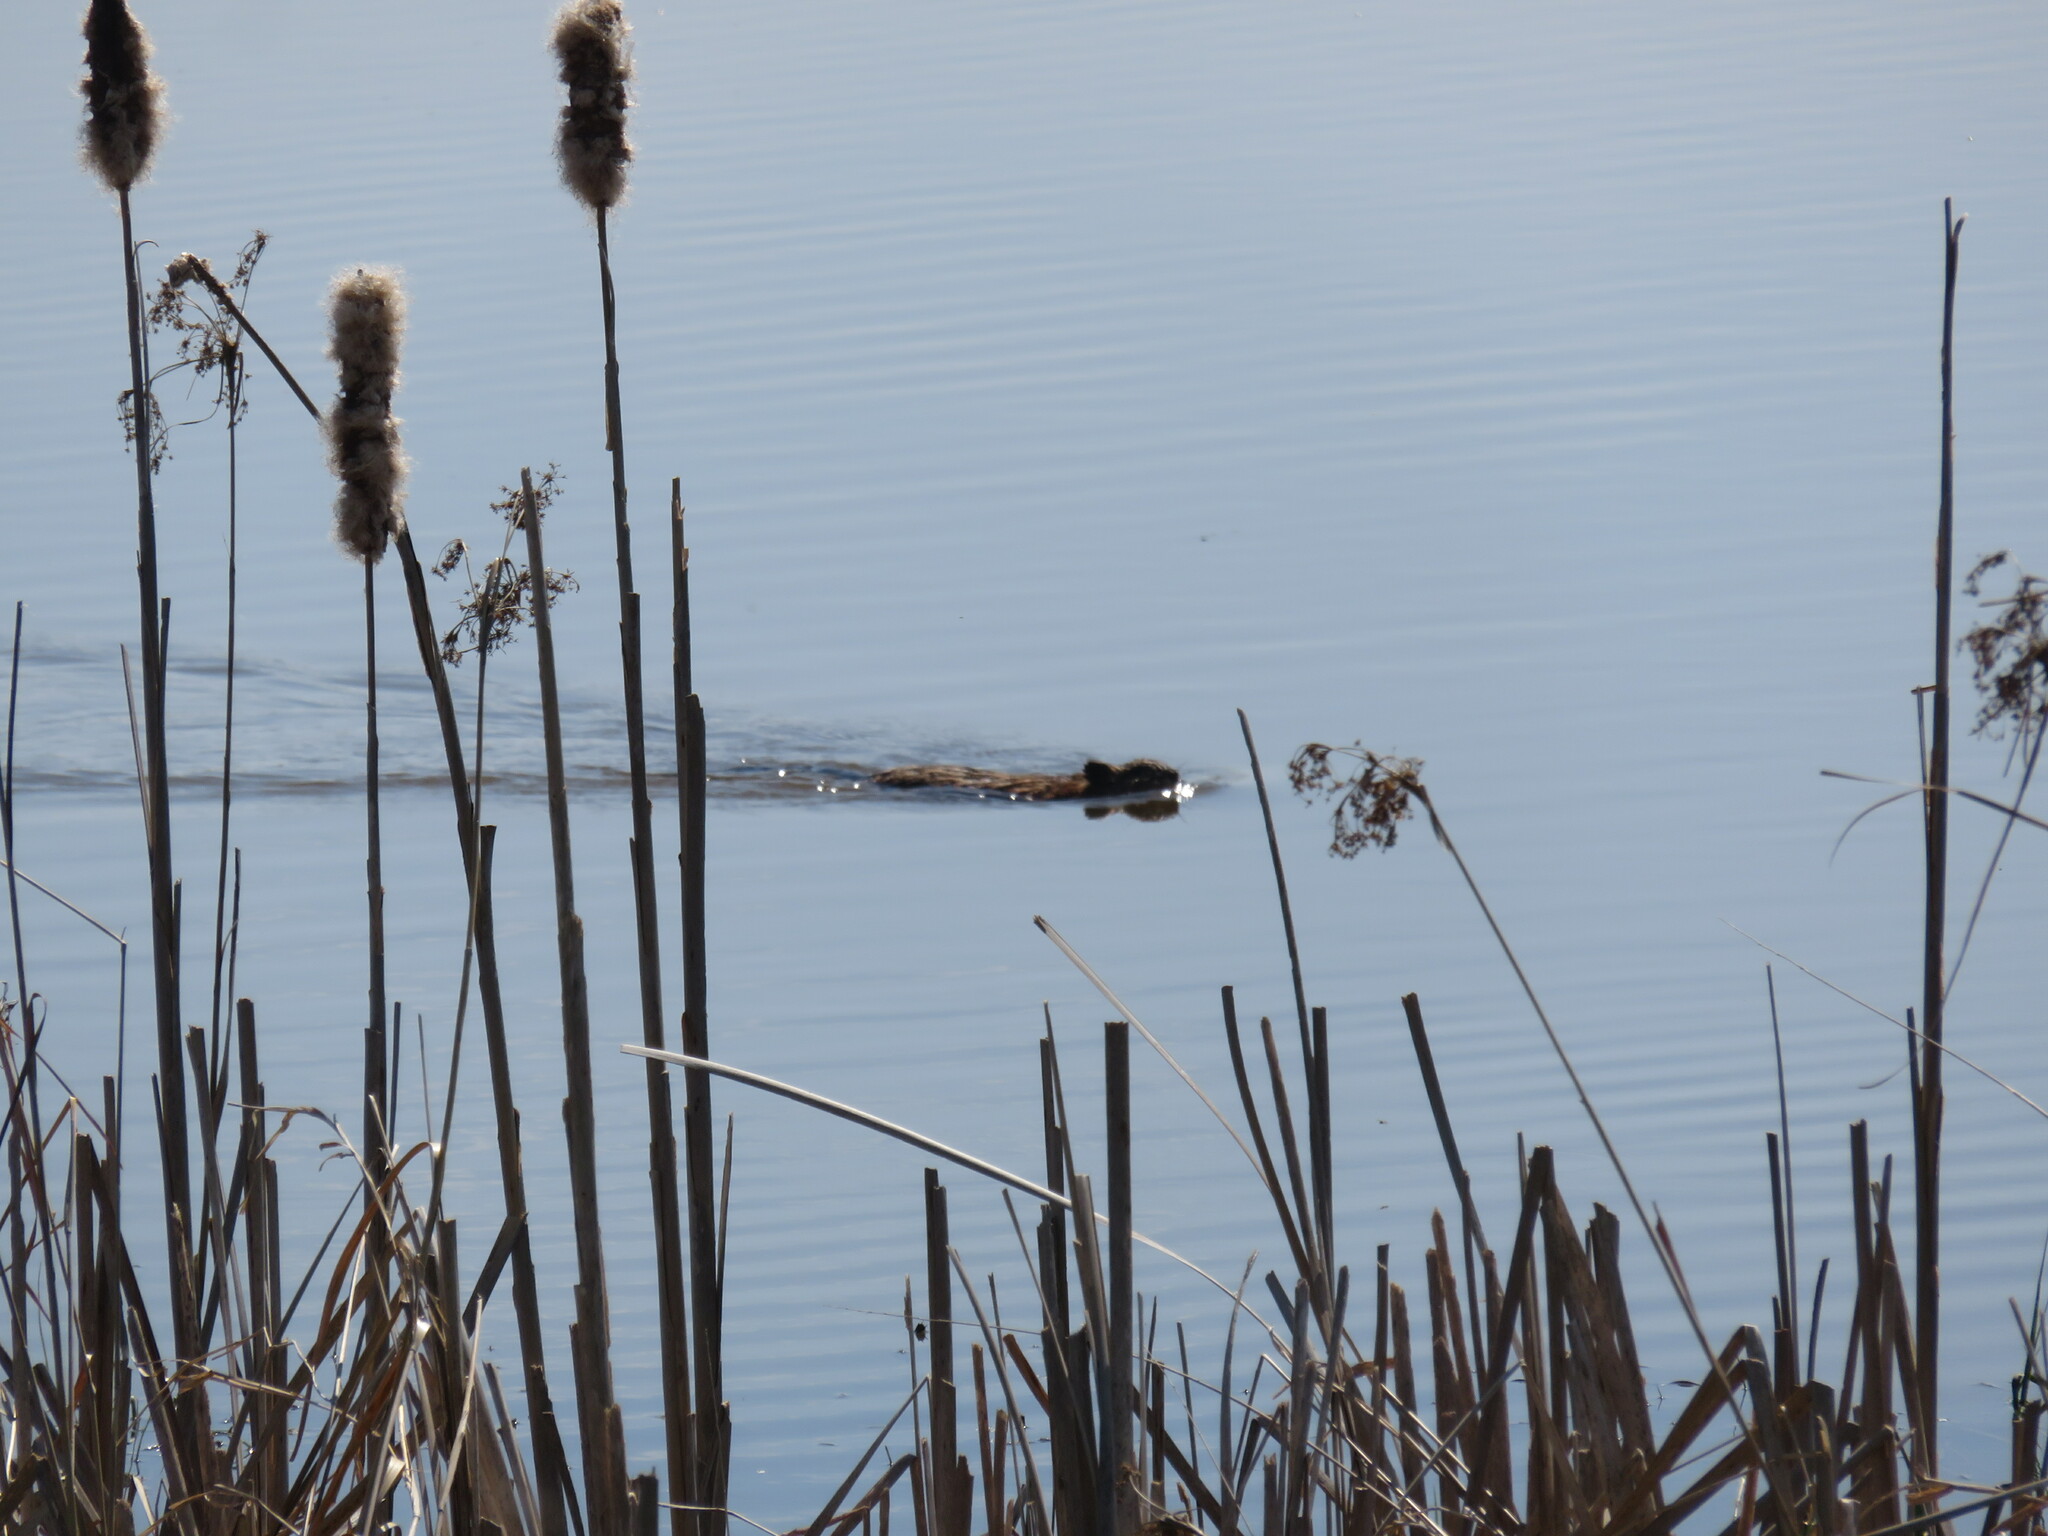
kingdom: Animalia
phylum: Chordata
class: Mammalia
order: Rodentia
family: Cricetidae
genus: Ondatra
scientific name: Ondatra zibethicus
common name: Muskrat
